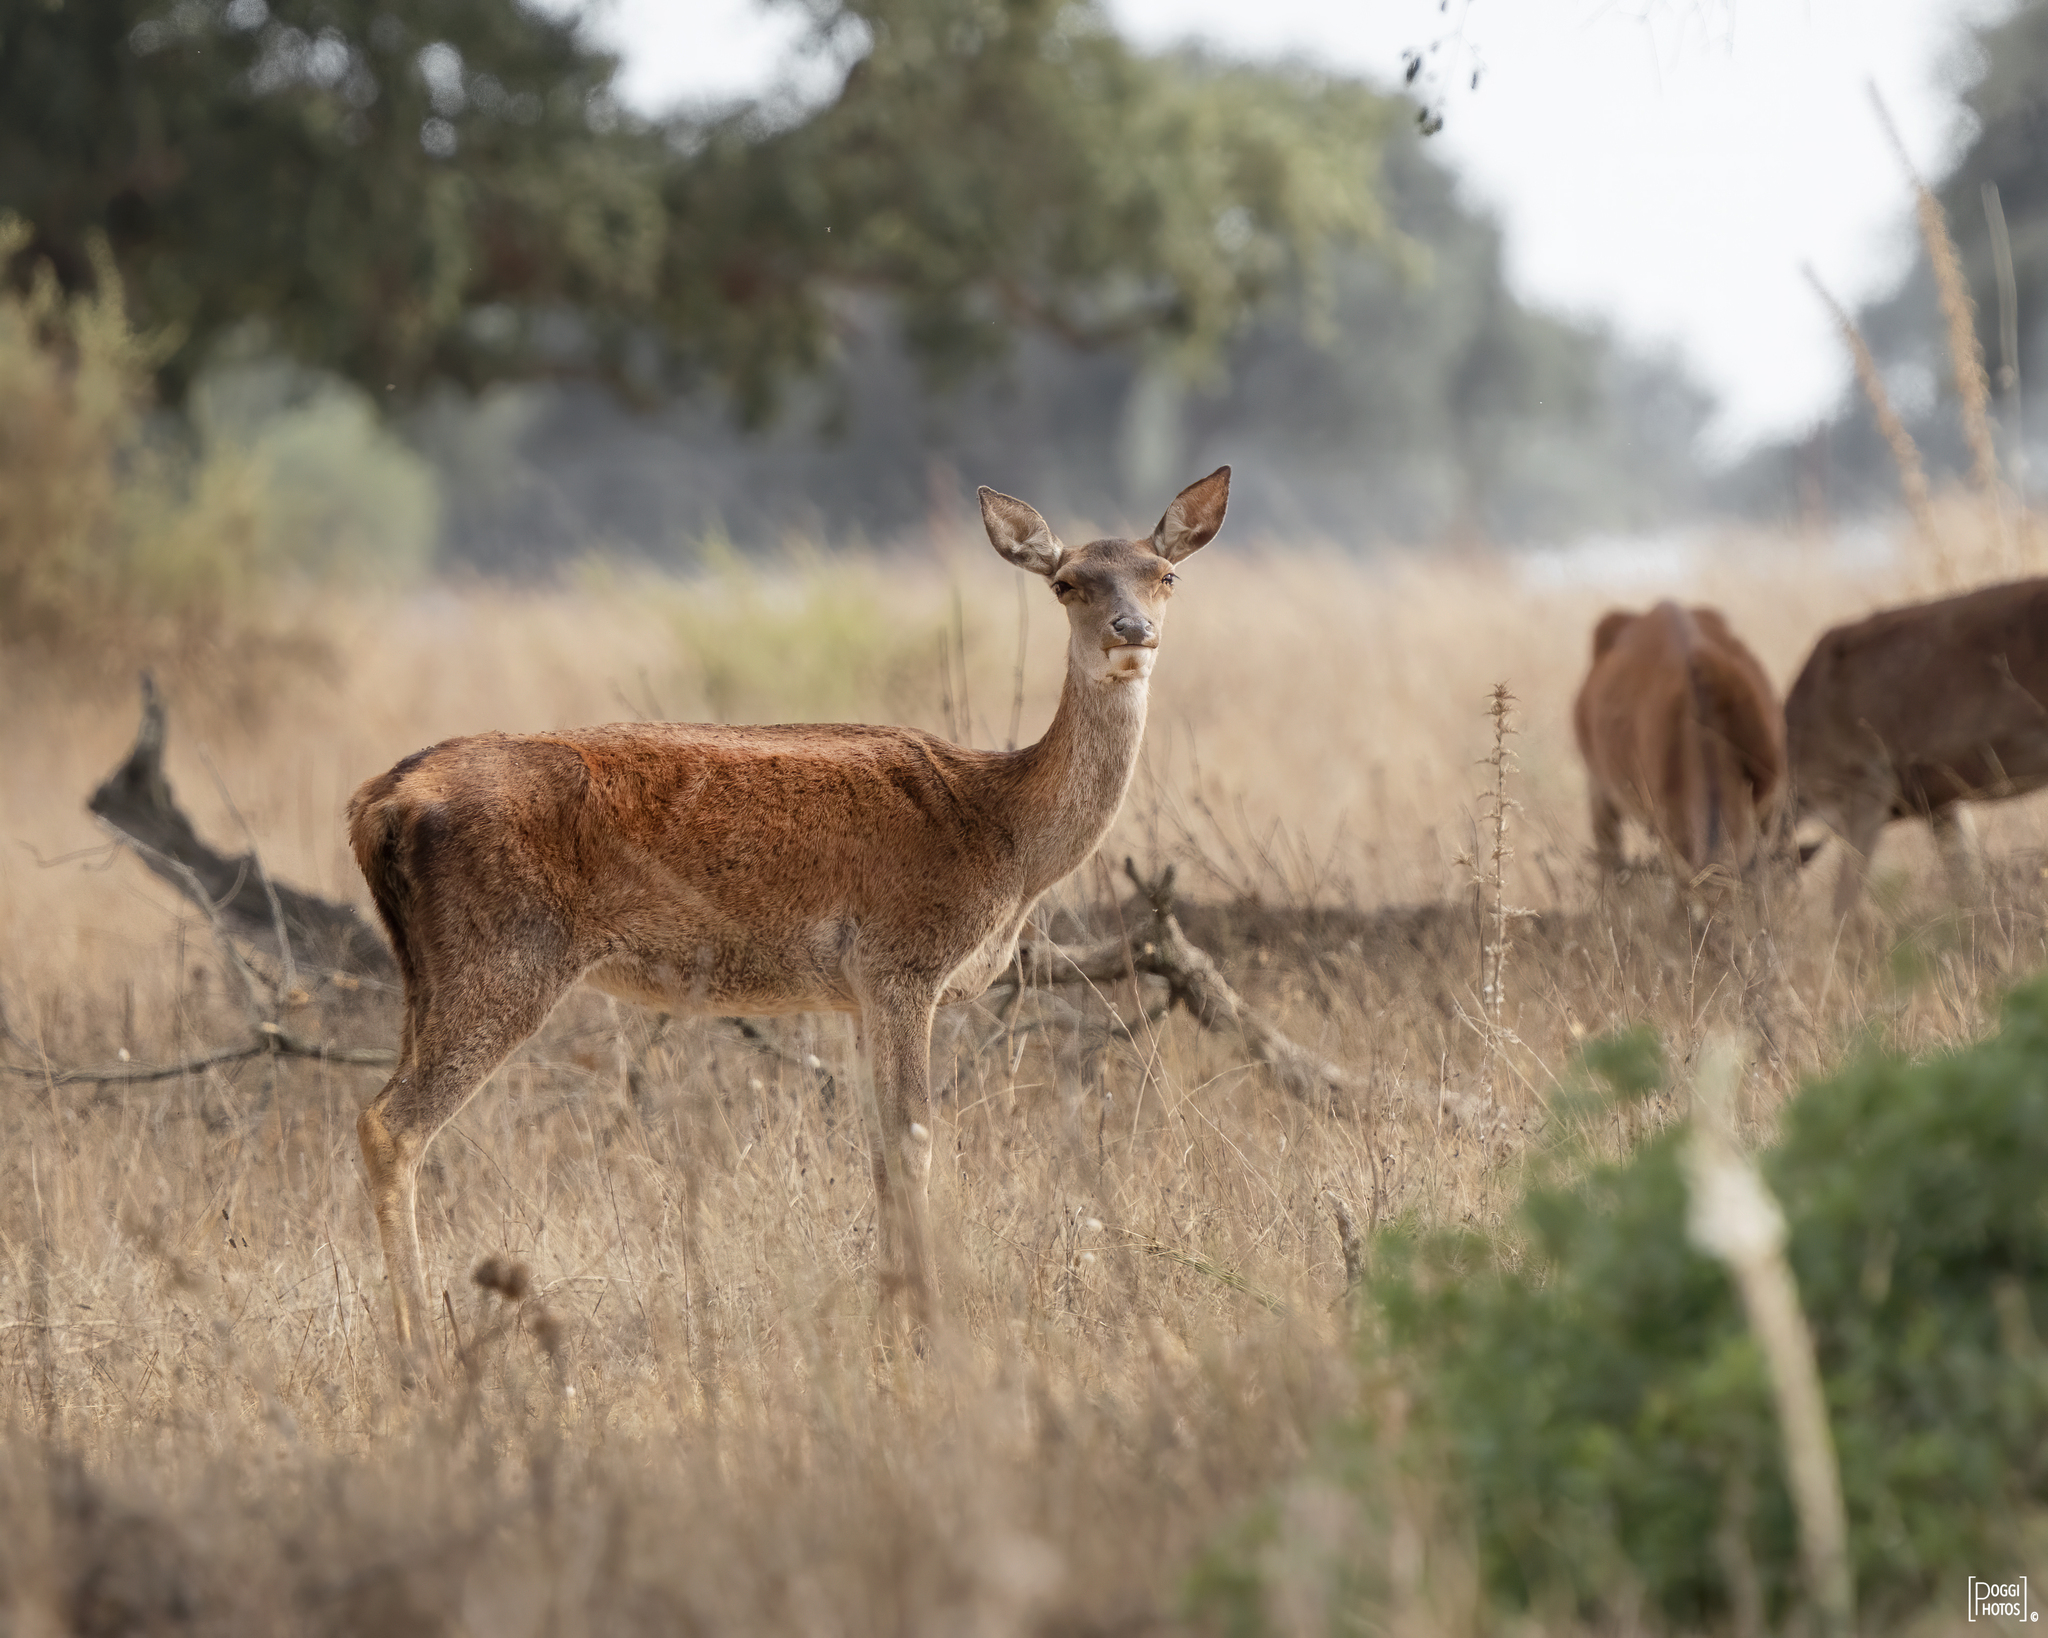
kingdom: Animalia
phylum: Chordata
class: Mammalia
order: Artiodactyla
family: Cervidae
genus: Cervus
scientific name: Cervus elaphus
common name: Red deer
